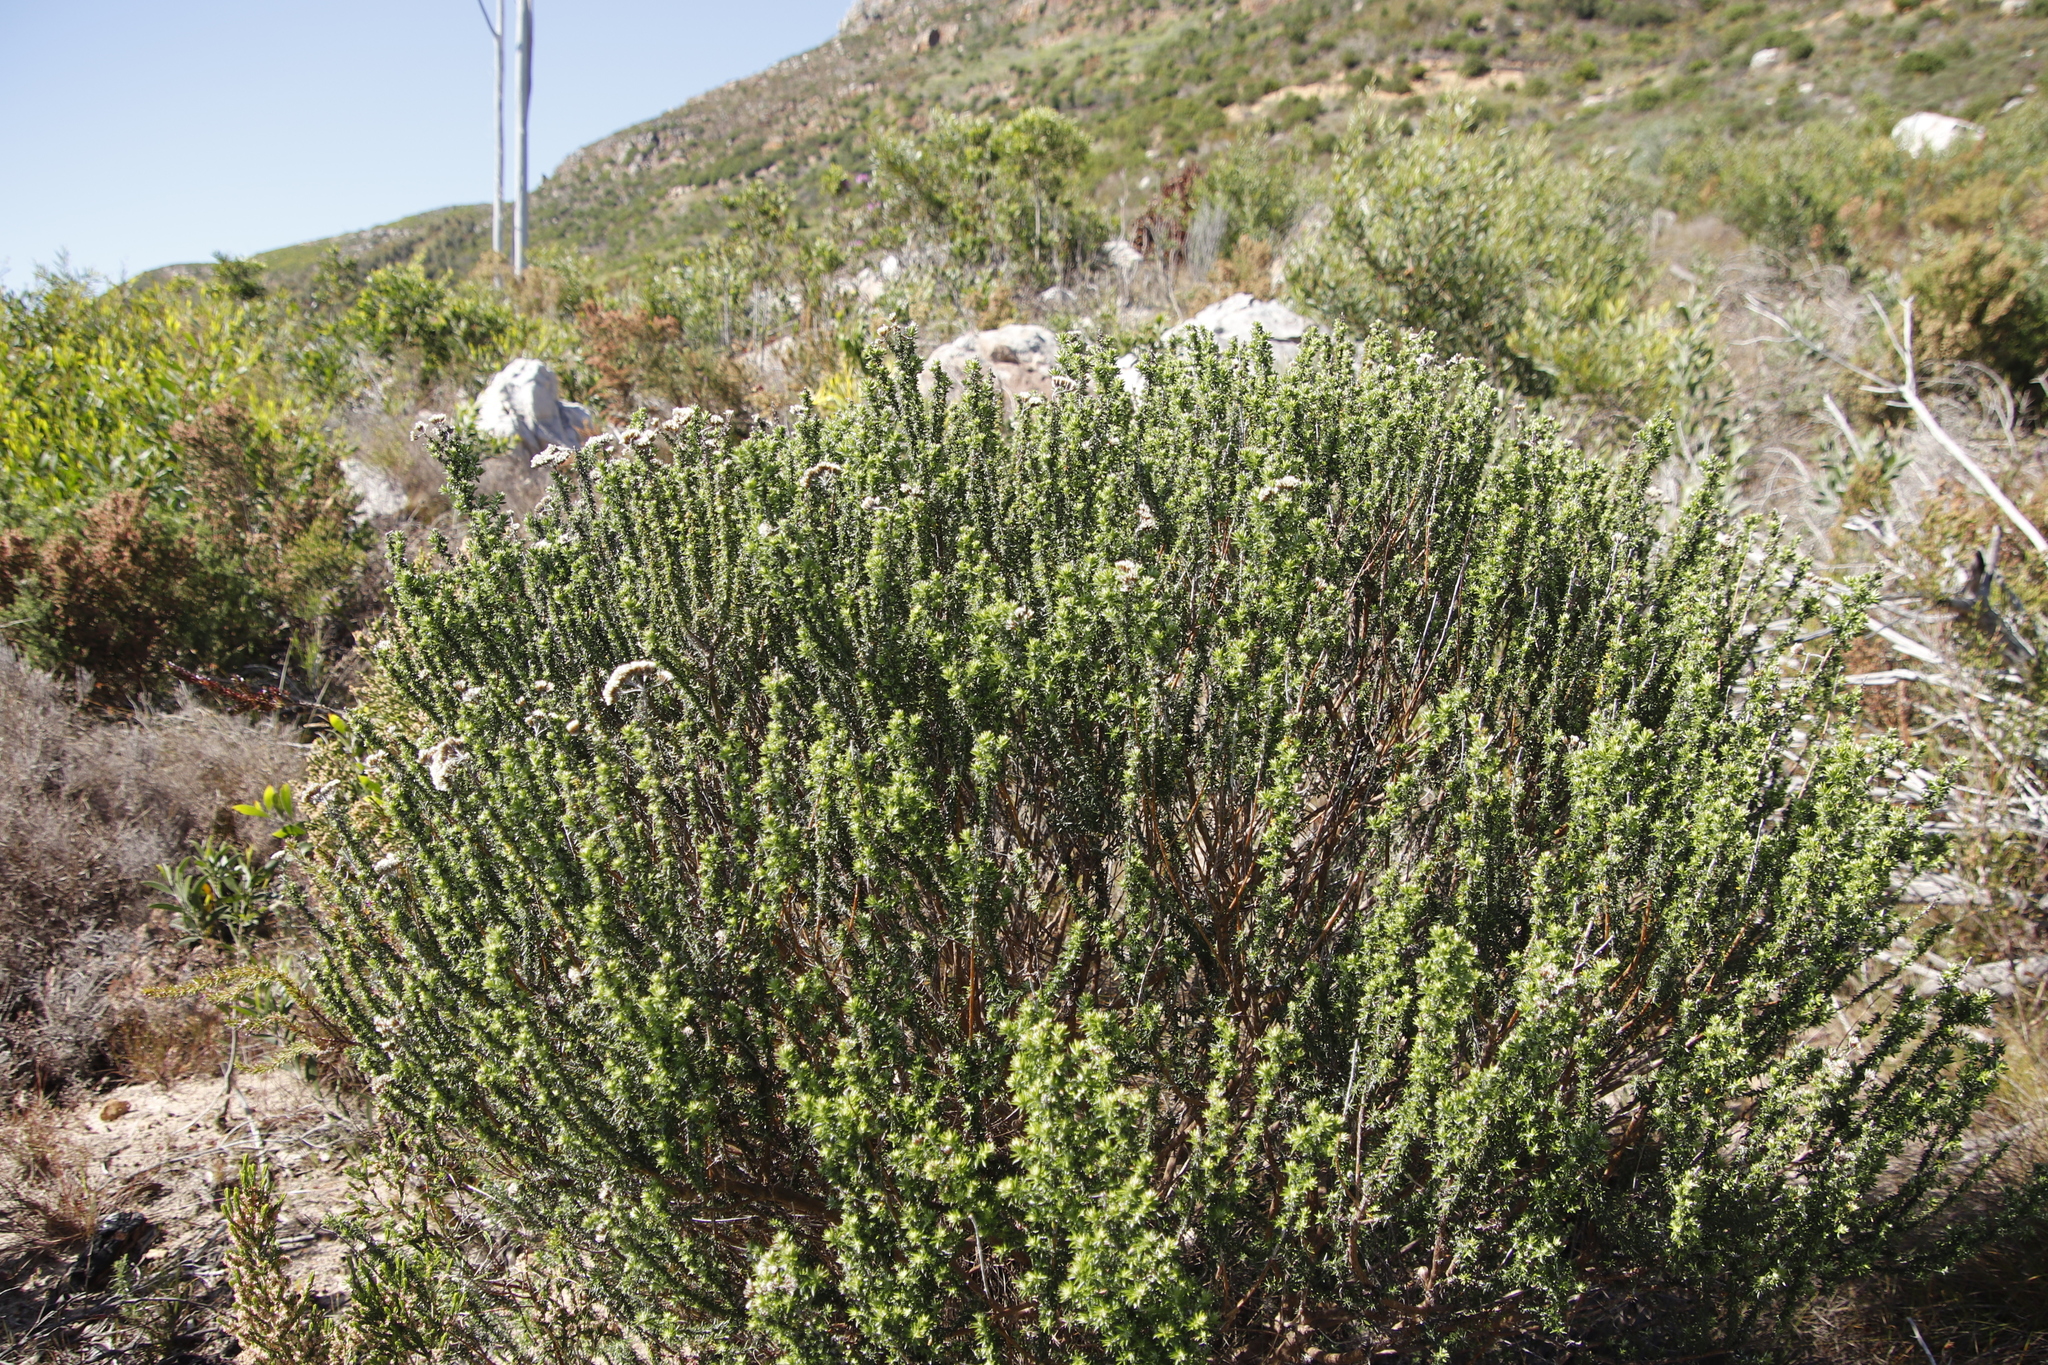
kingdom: Plantae
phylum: Tracheophyta
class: Magnoliopsida
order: Asterales
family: Asteraceae
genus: Metalasia
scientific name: Metalasia densa
